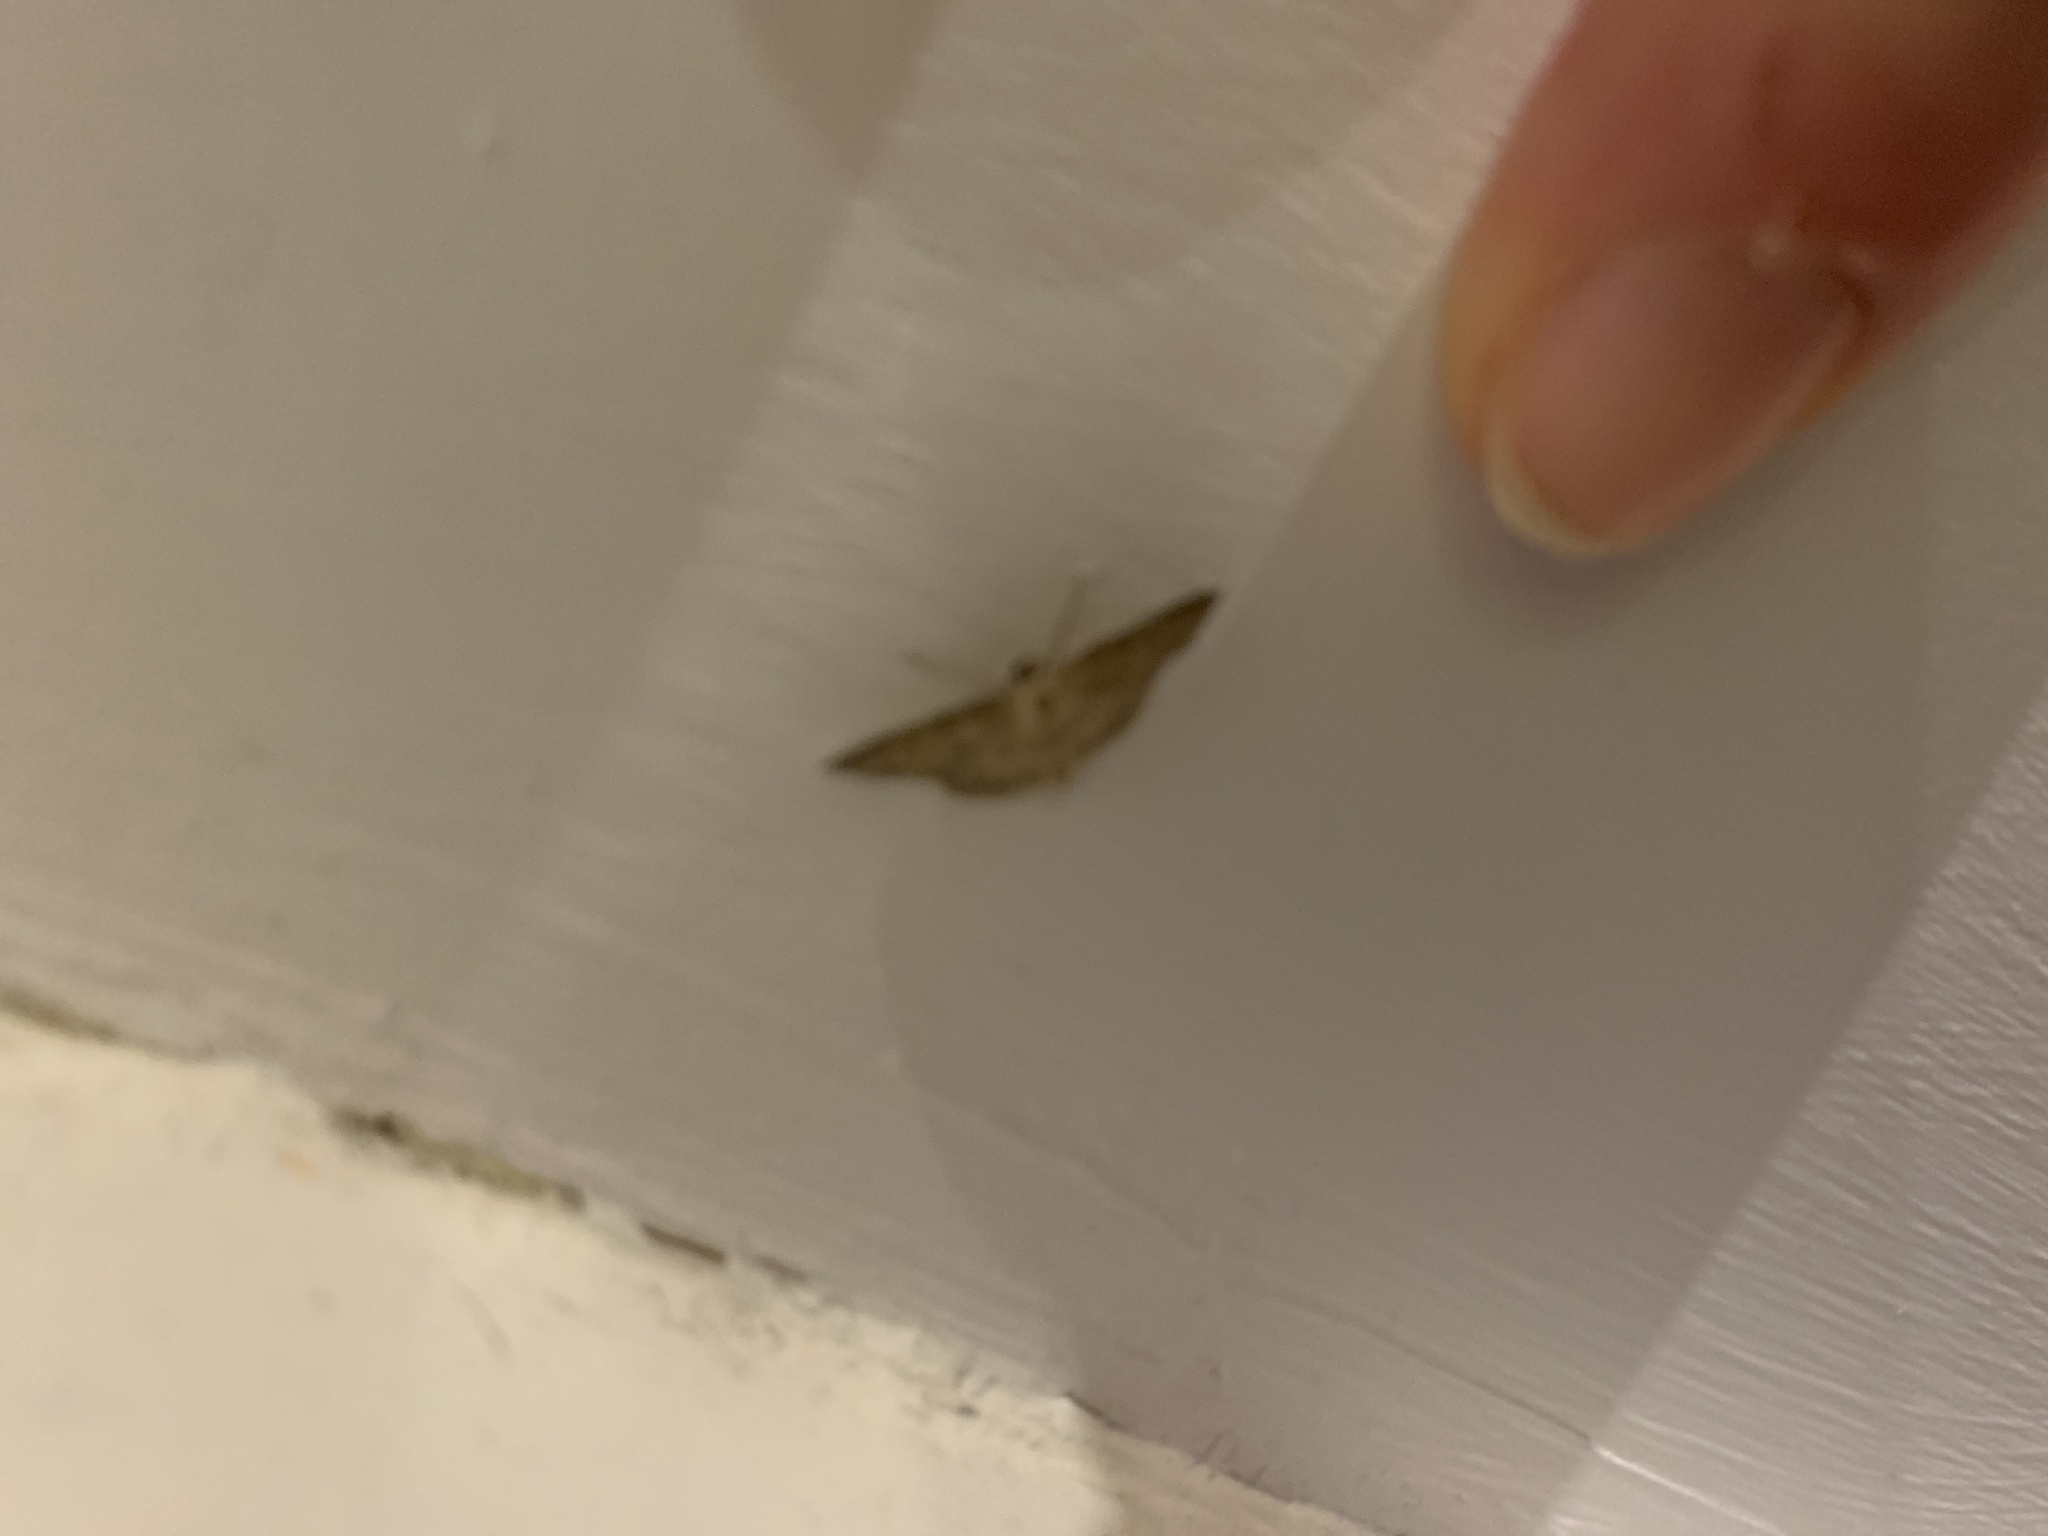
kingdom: Animalia
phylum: Arthropoda
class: Insecta
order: Lepidoptera
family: Geometridae
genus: Idaea
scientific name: Idaea seriata
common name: Small dusty wave
